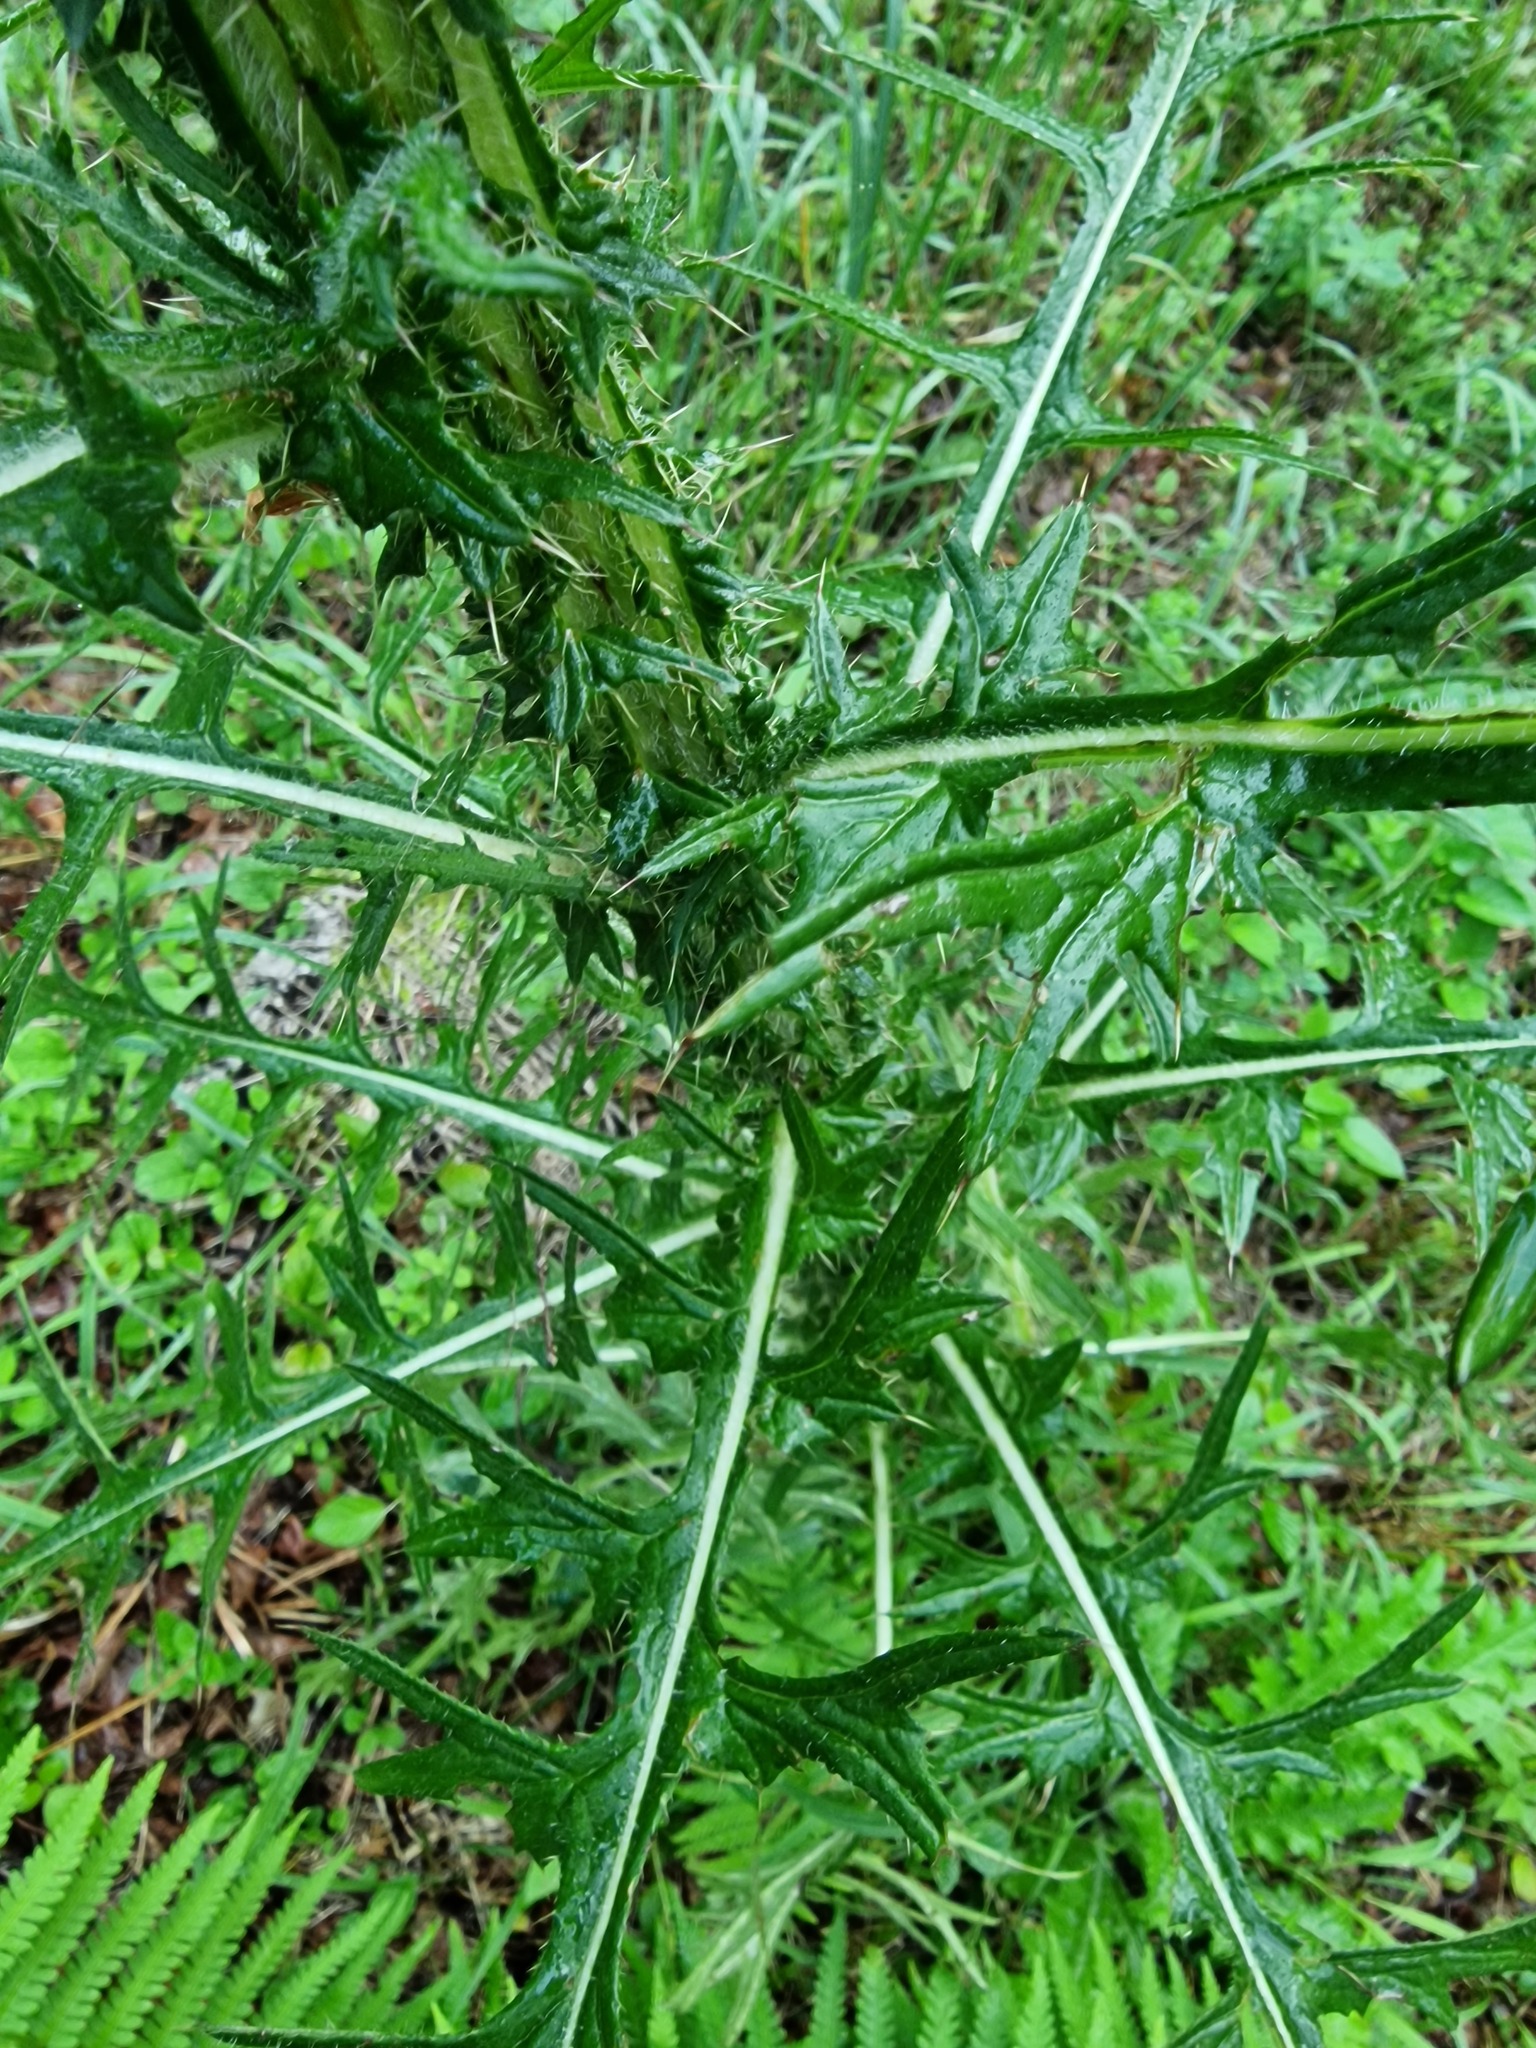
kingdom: Plantae
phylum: Tracheophyta
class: Magnoliopsida
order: Asterales
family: Asteraceae
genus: Cirsium
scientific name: Cirsium palustre
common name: Marsh thistle
